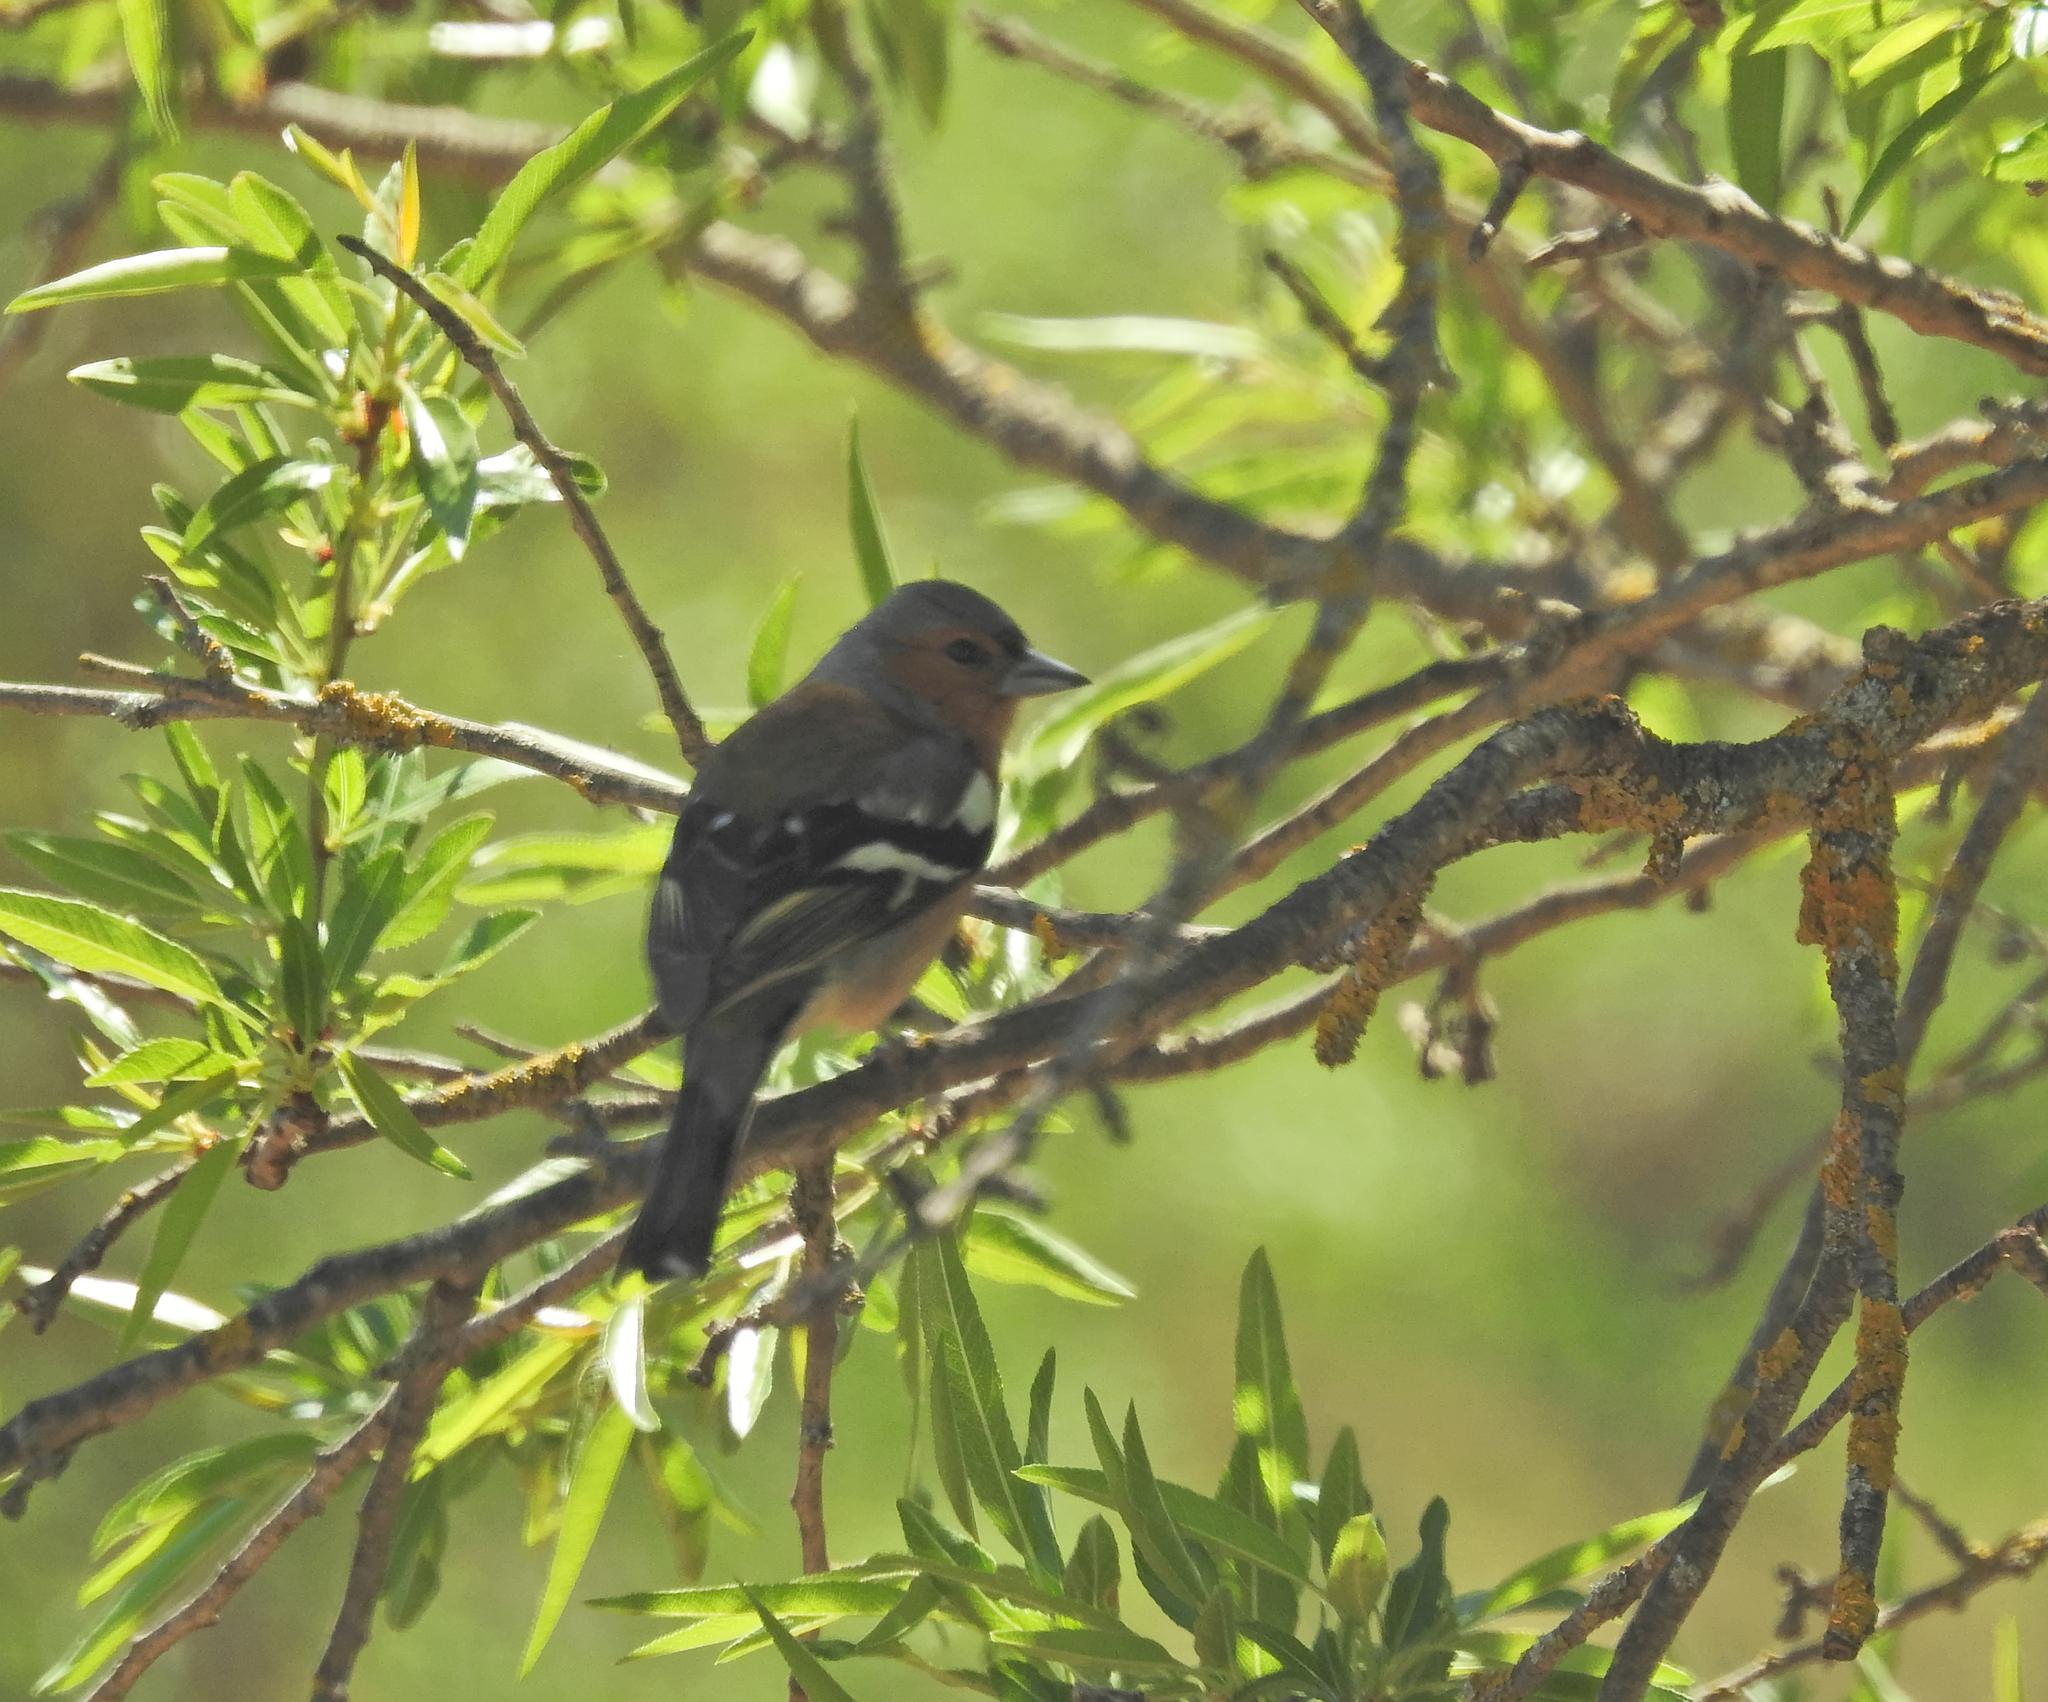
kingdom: Animalia
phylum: Chordata
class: Aves
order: Passeriformes
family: Fringillidae
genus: Fringilla
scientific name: Fringilla coelebs
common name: Common chaffinch
